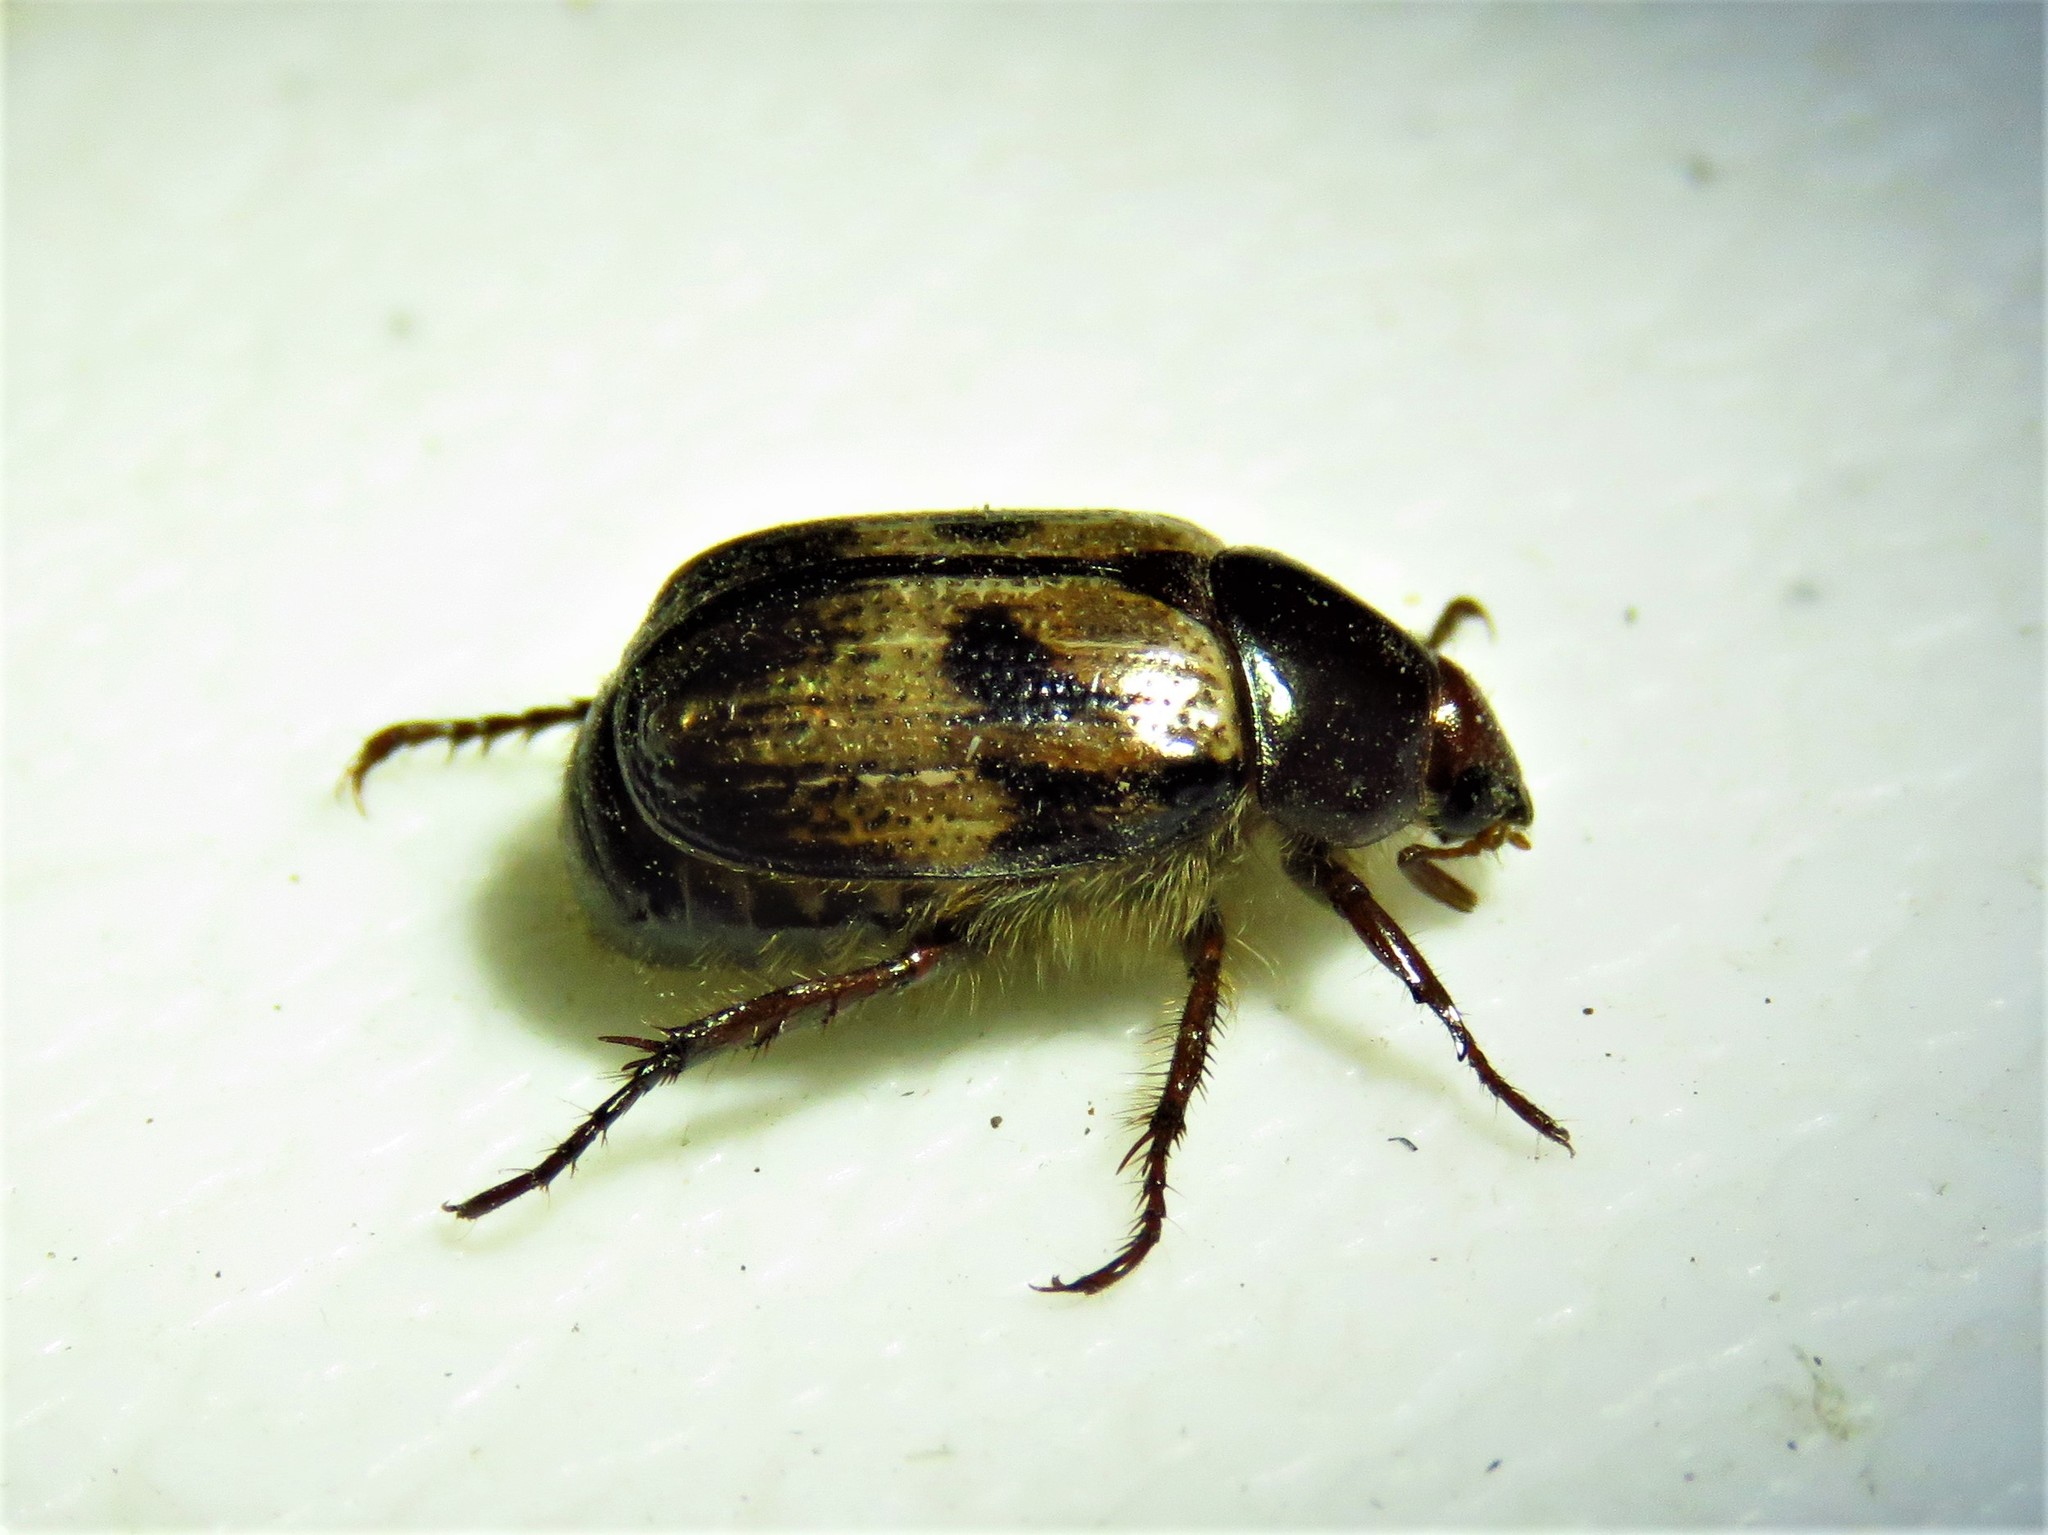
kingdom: Animalia
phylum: Arthropoda
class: Insecta
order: Coleoptera
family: Scarabaeidae
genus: Paranomala
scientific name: Paranomala binotata
